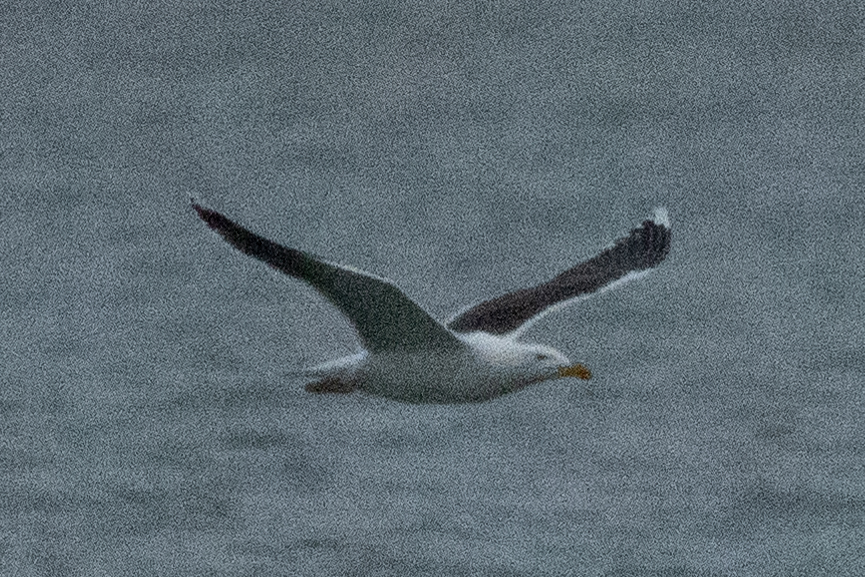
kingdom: Animalia
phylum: Chordata
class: Aves
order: Charadriiformes
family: Laridae
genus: Larus
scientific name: Larus marinus
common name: Great black-backed gull
